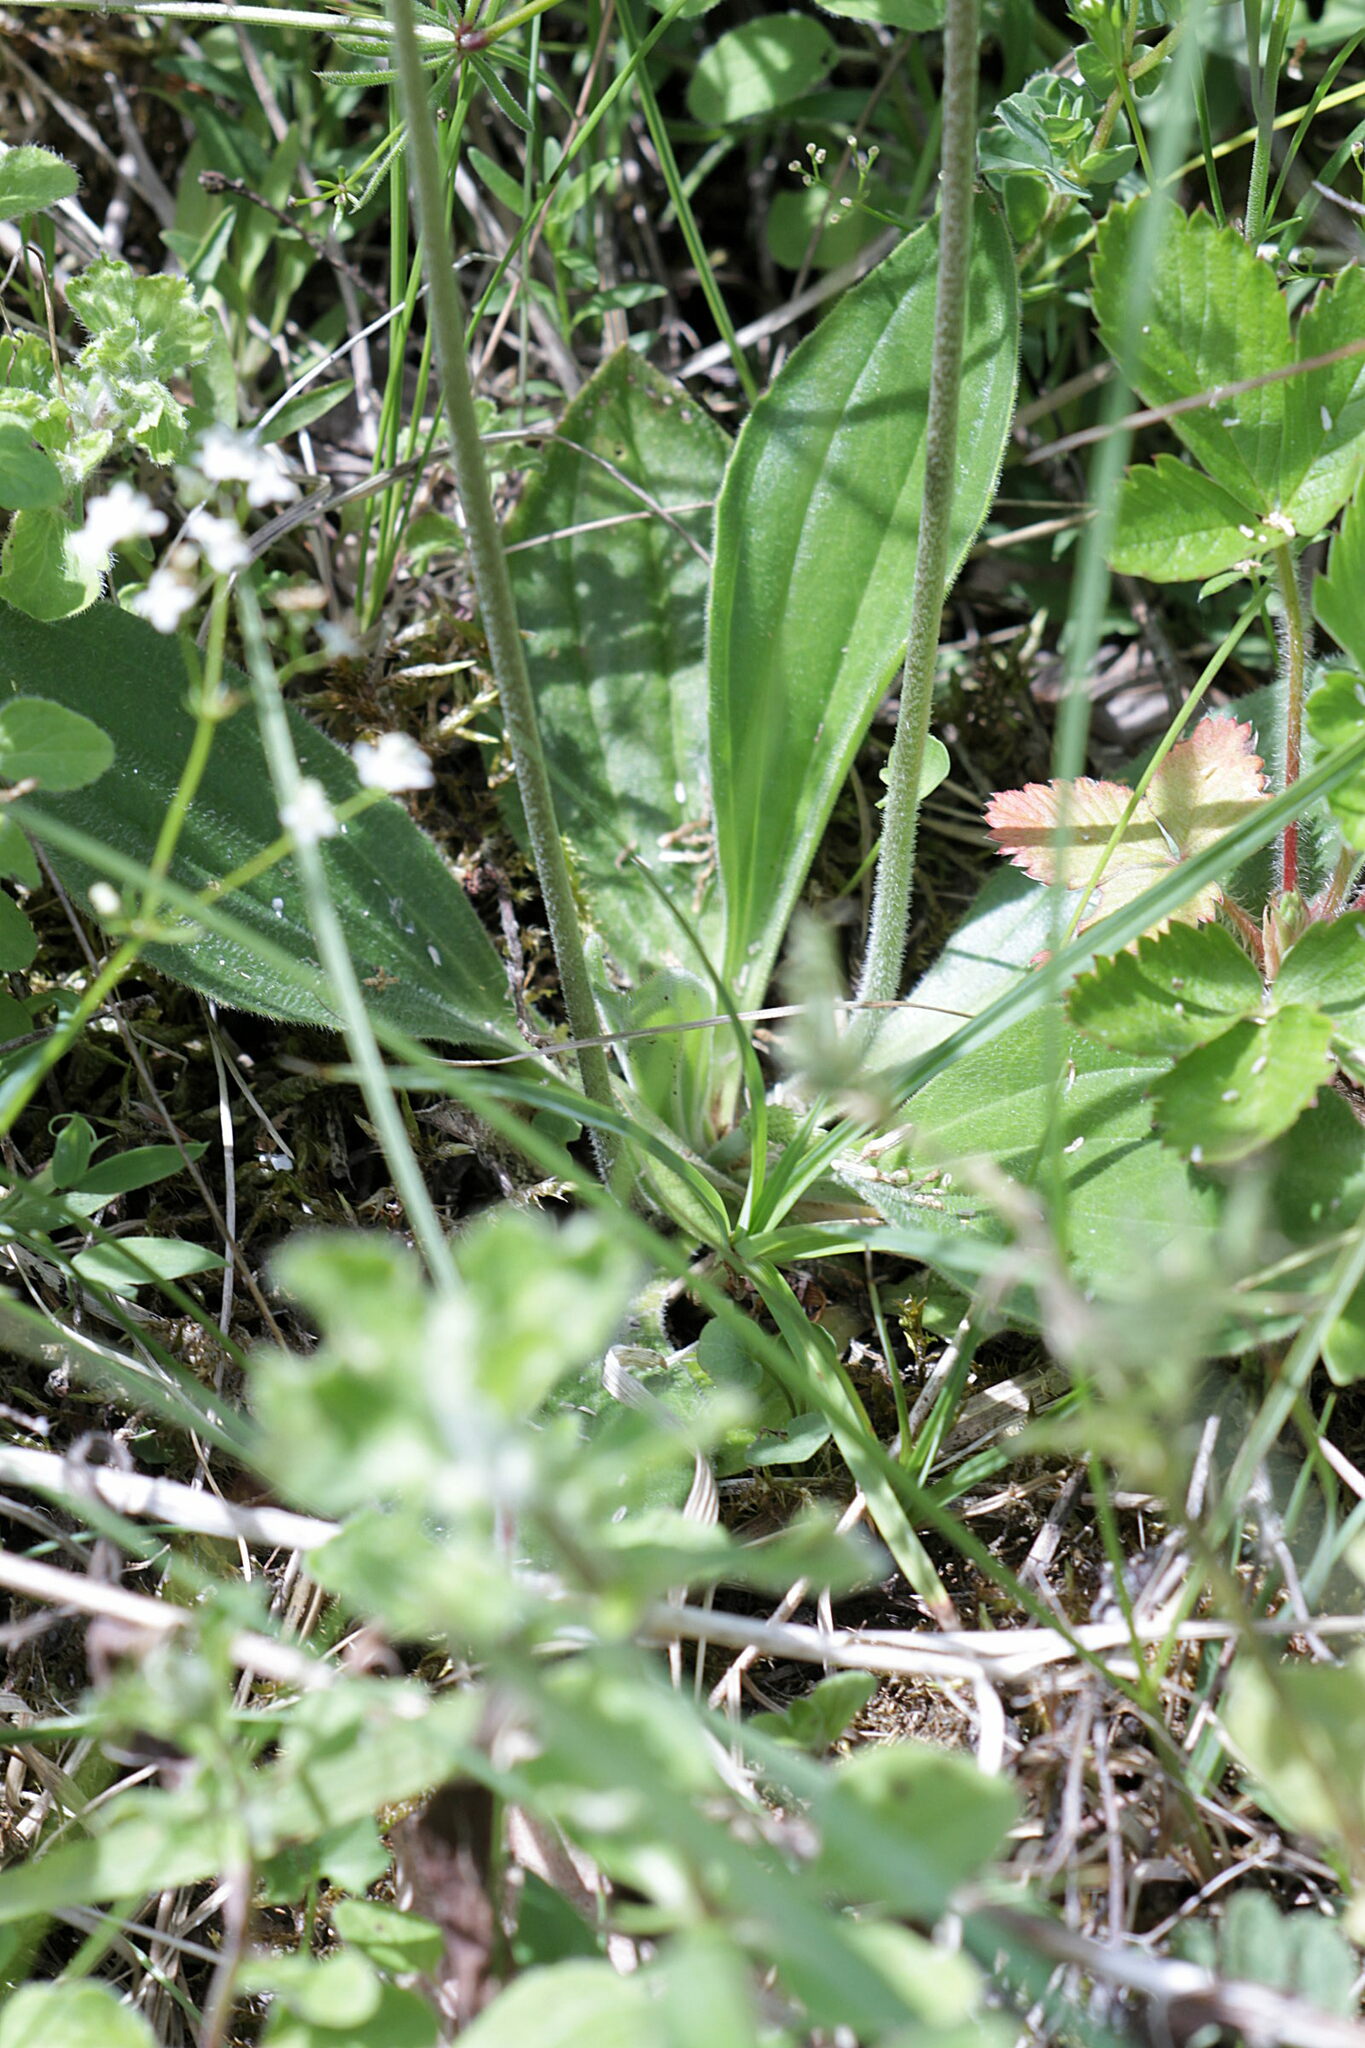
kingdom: Plantae
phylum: Tracheophyta
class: Magnoliopsida
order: Lamiales
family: Plantaginaceae
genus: Plantago
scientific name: Plantago media
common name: Hoary plantain
